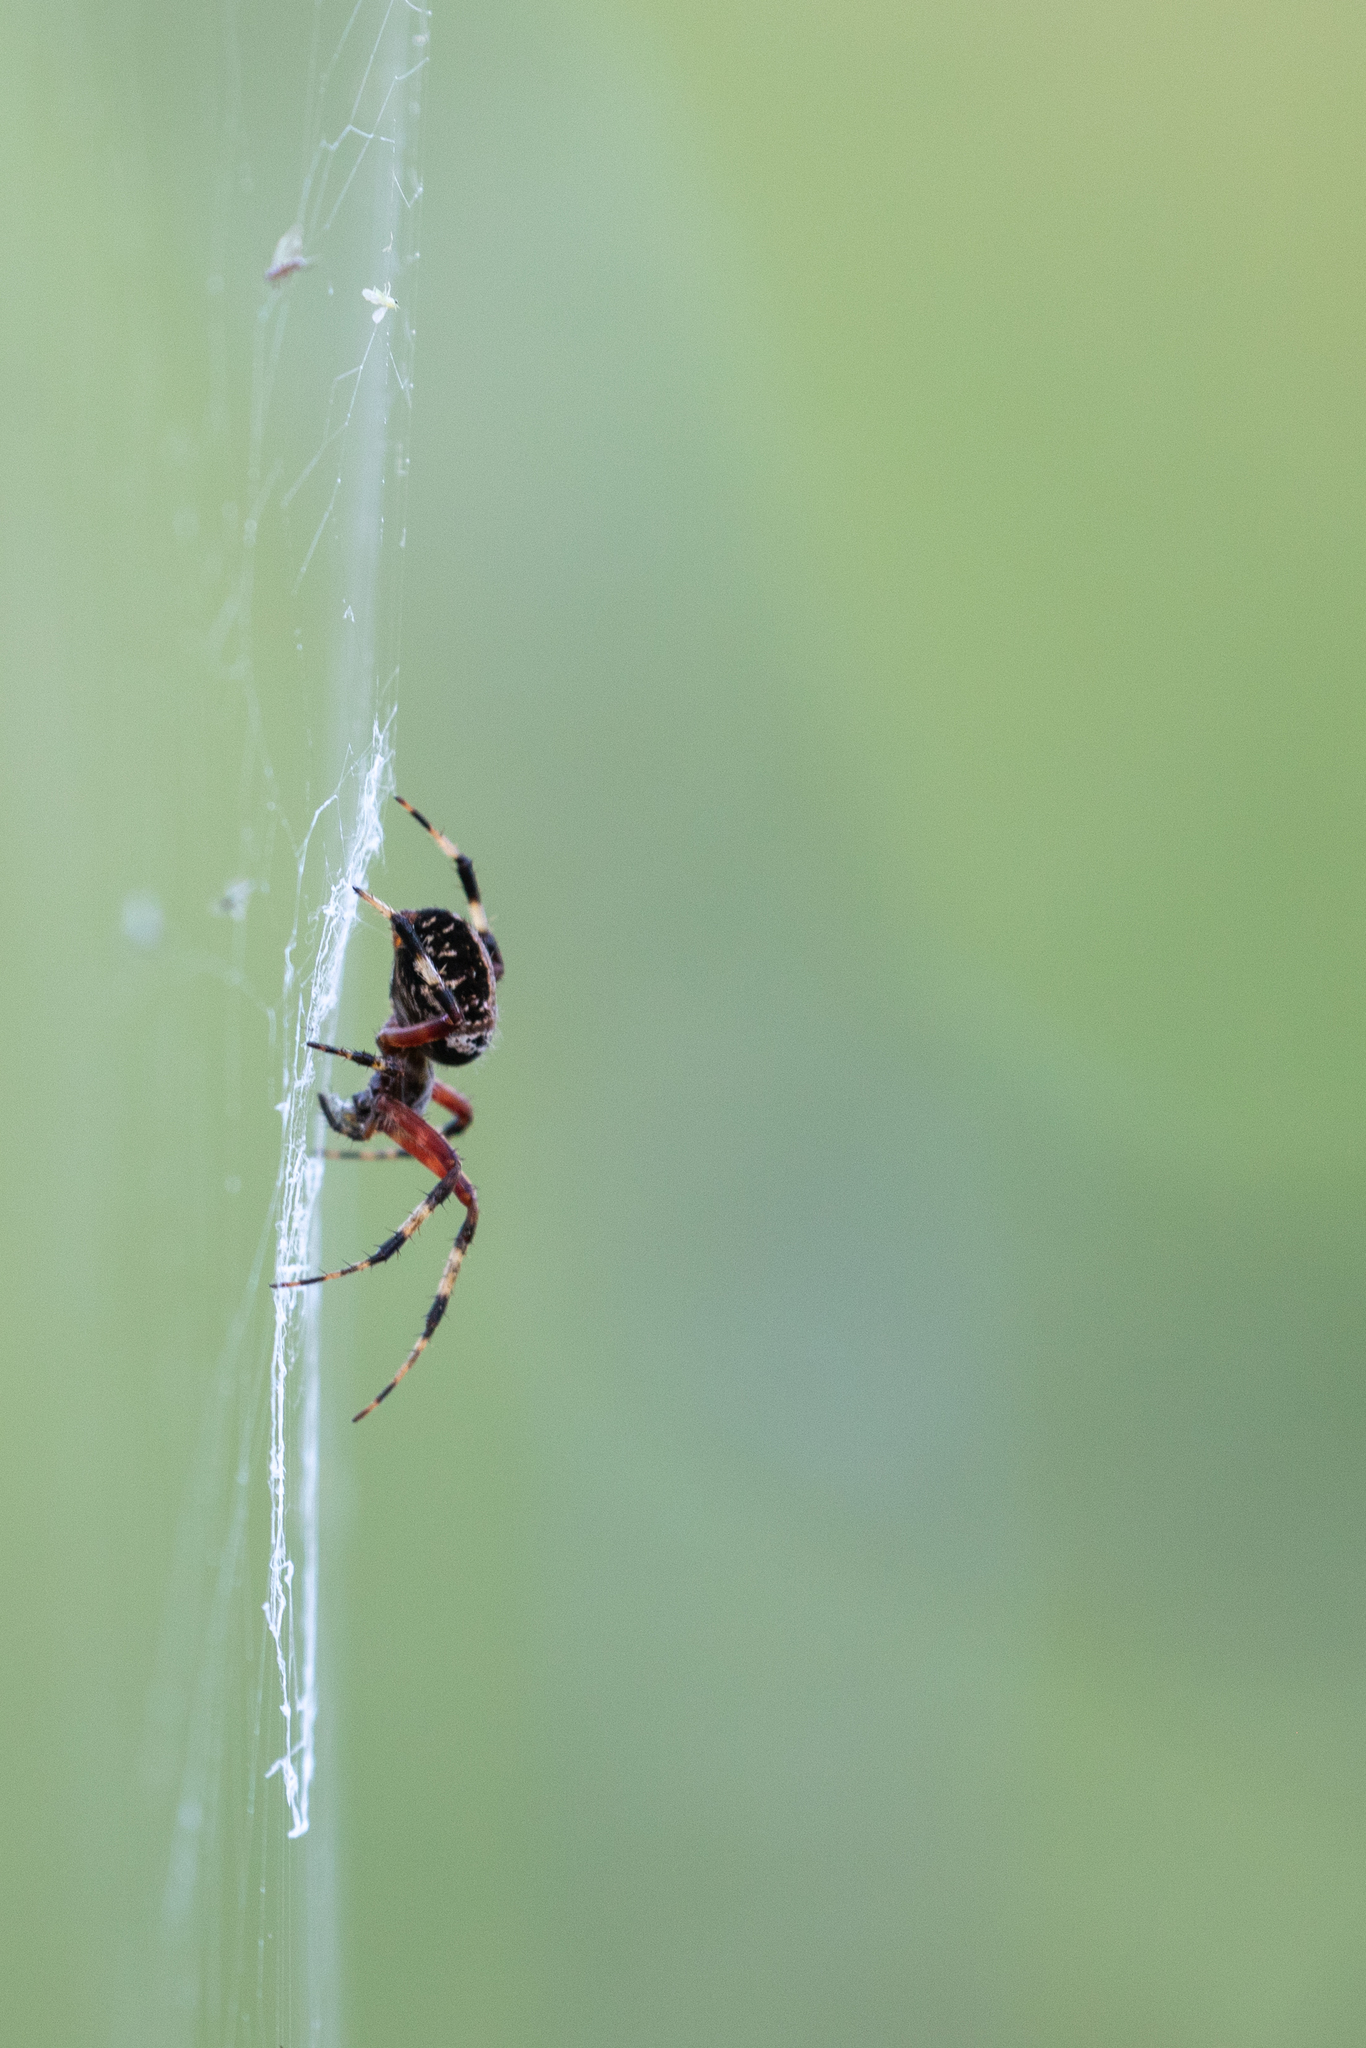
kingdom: Animalia
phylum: Arthropoda
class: Arachnida
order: Araneae
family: Araneidae
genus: Neoscona
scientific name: Neoscona domiciliorum
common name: Red-femured spotted orbweaver
